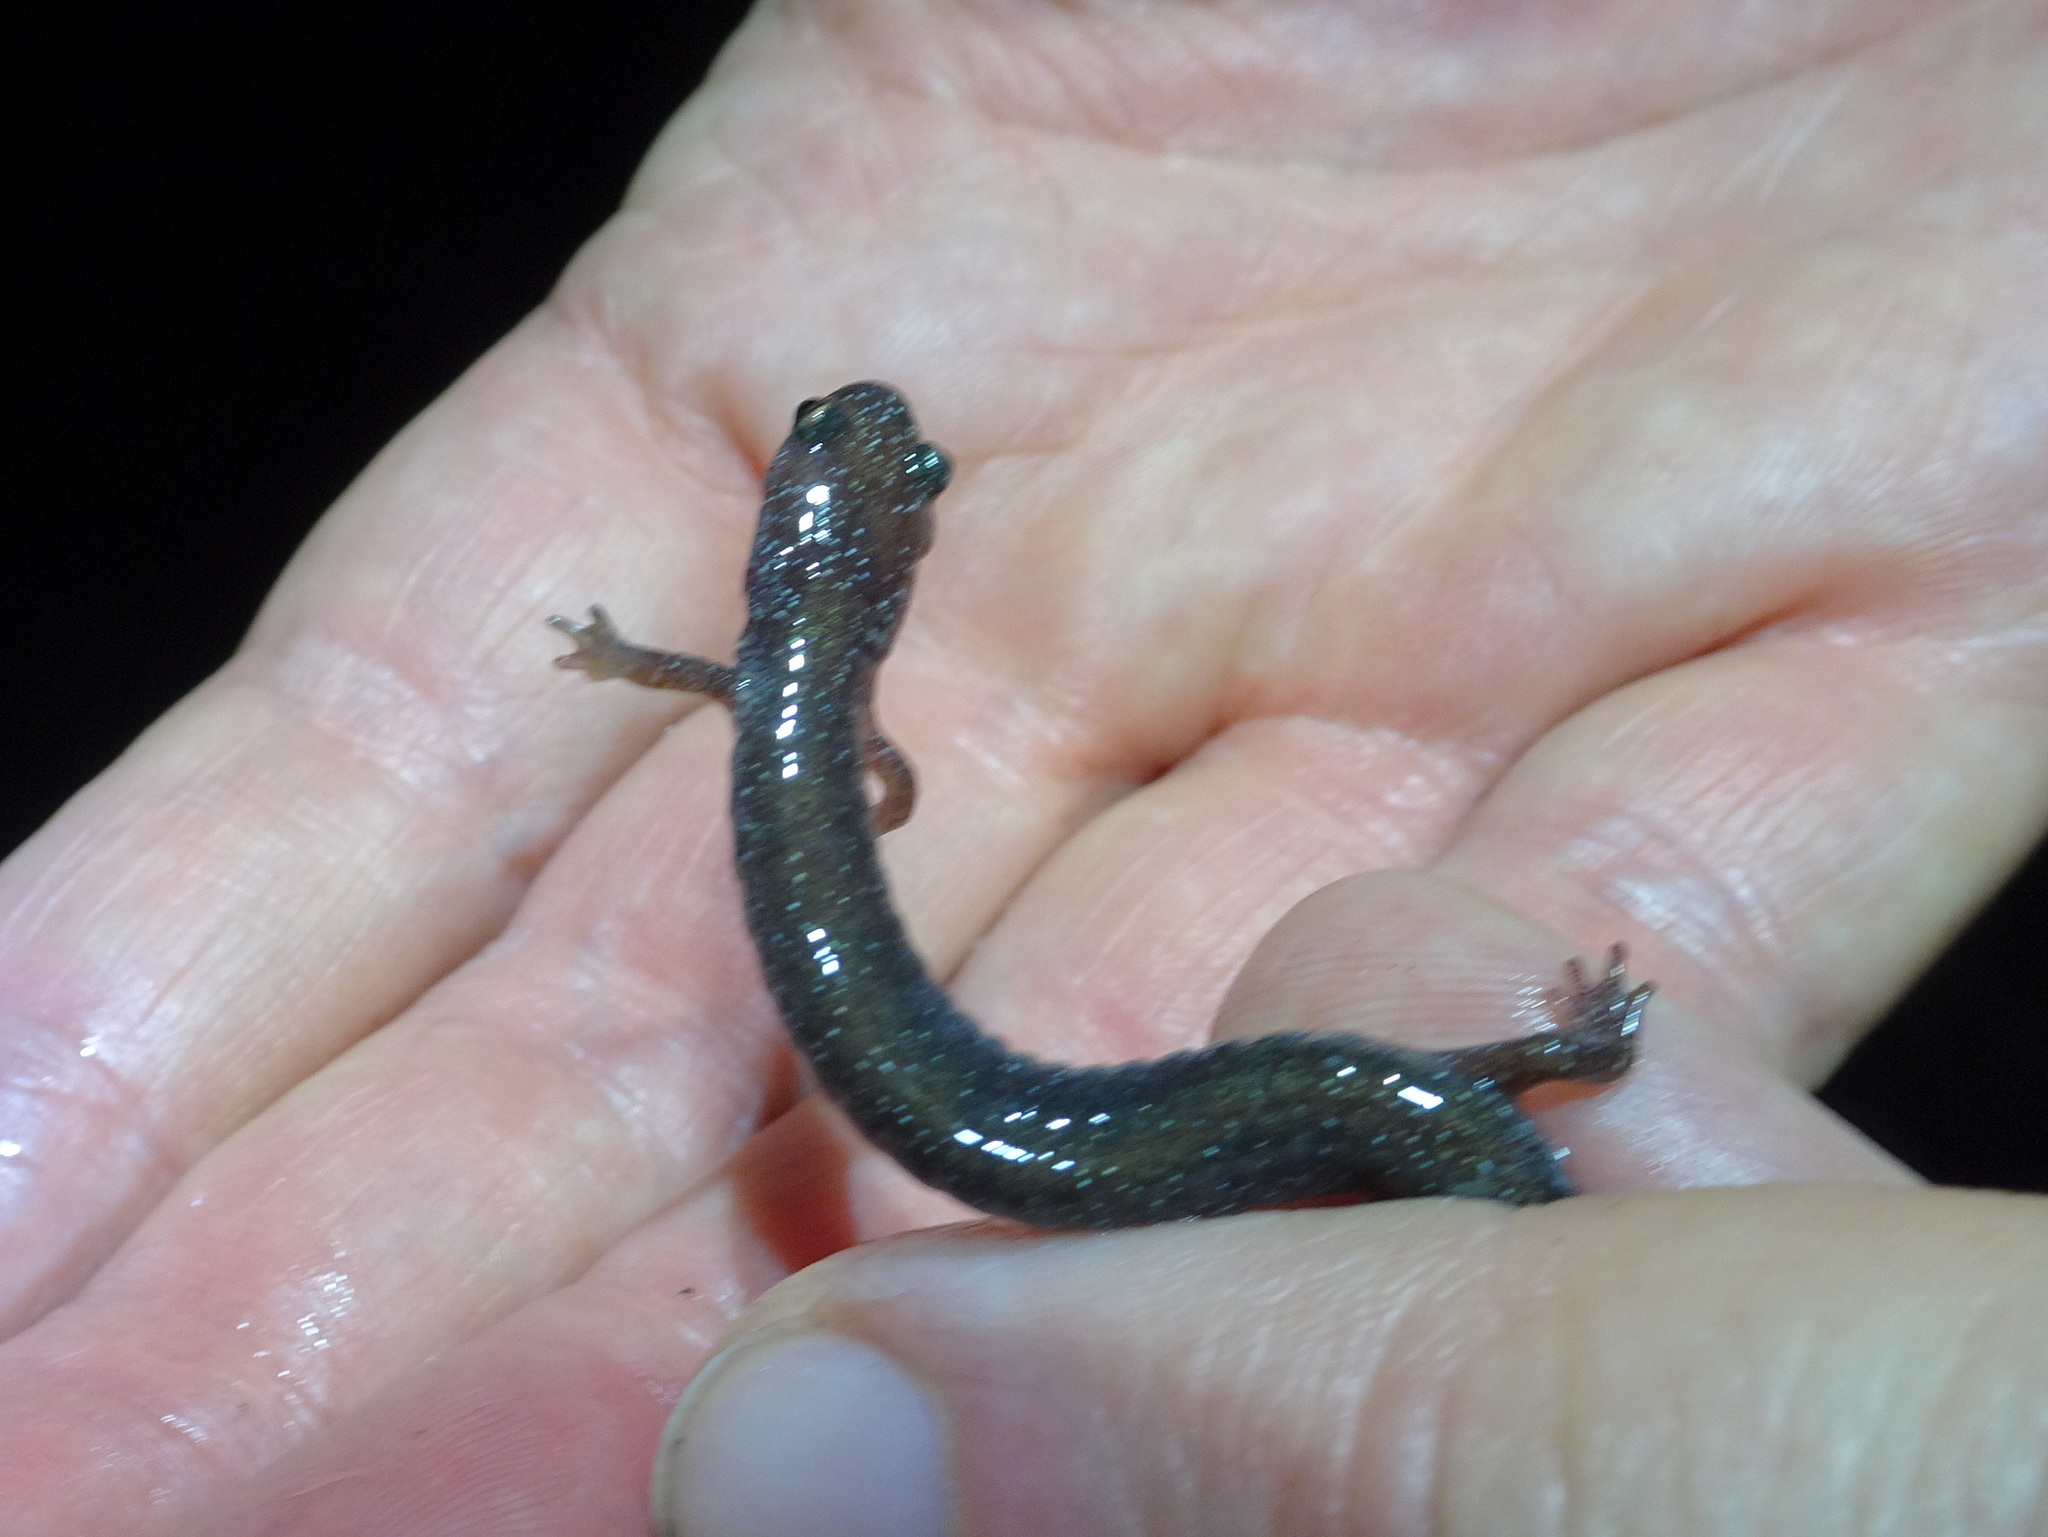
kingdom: Animalia
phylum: Chordata
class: Amphibia
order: Caudata
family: Plethodontidae
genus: Plethodon
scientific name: Plethodon cinereus
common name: Redback salamander
